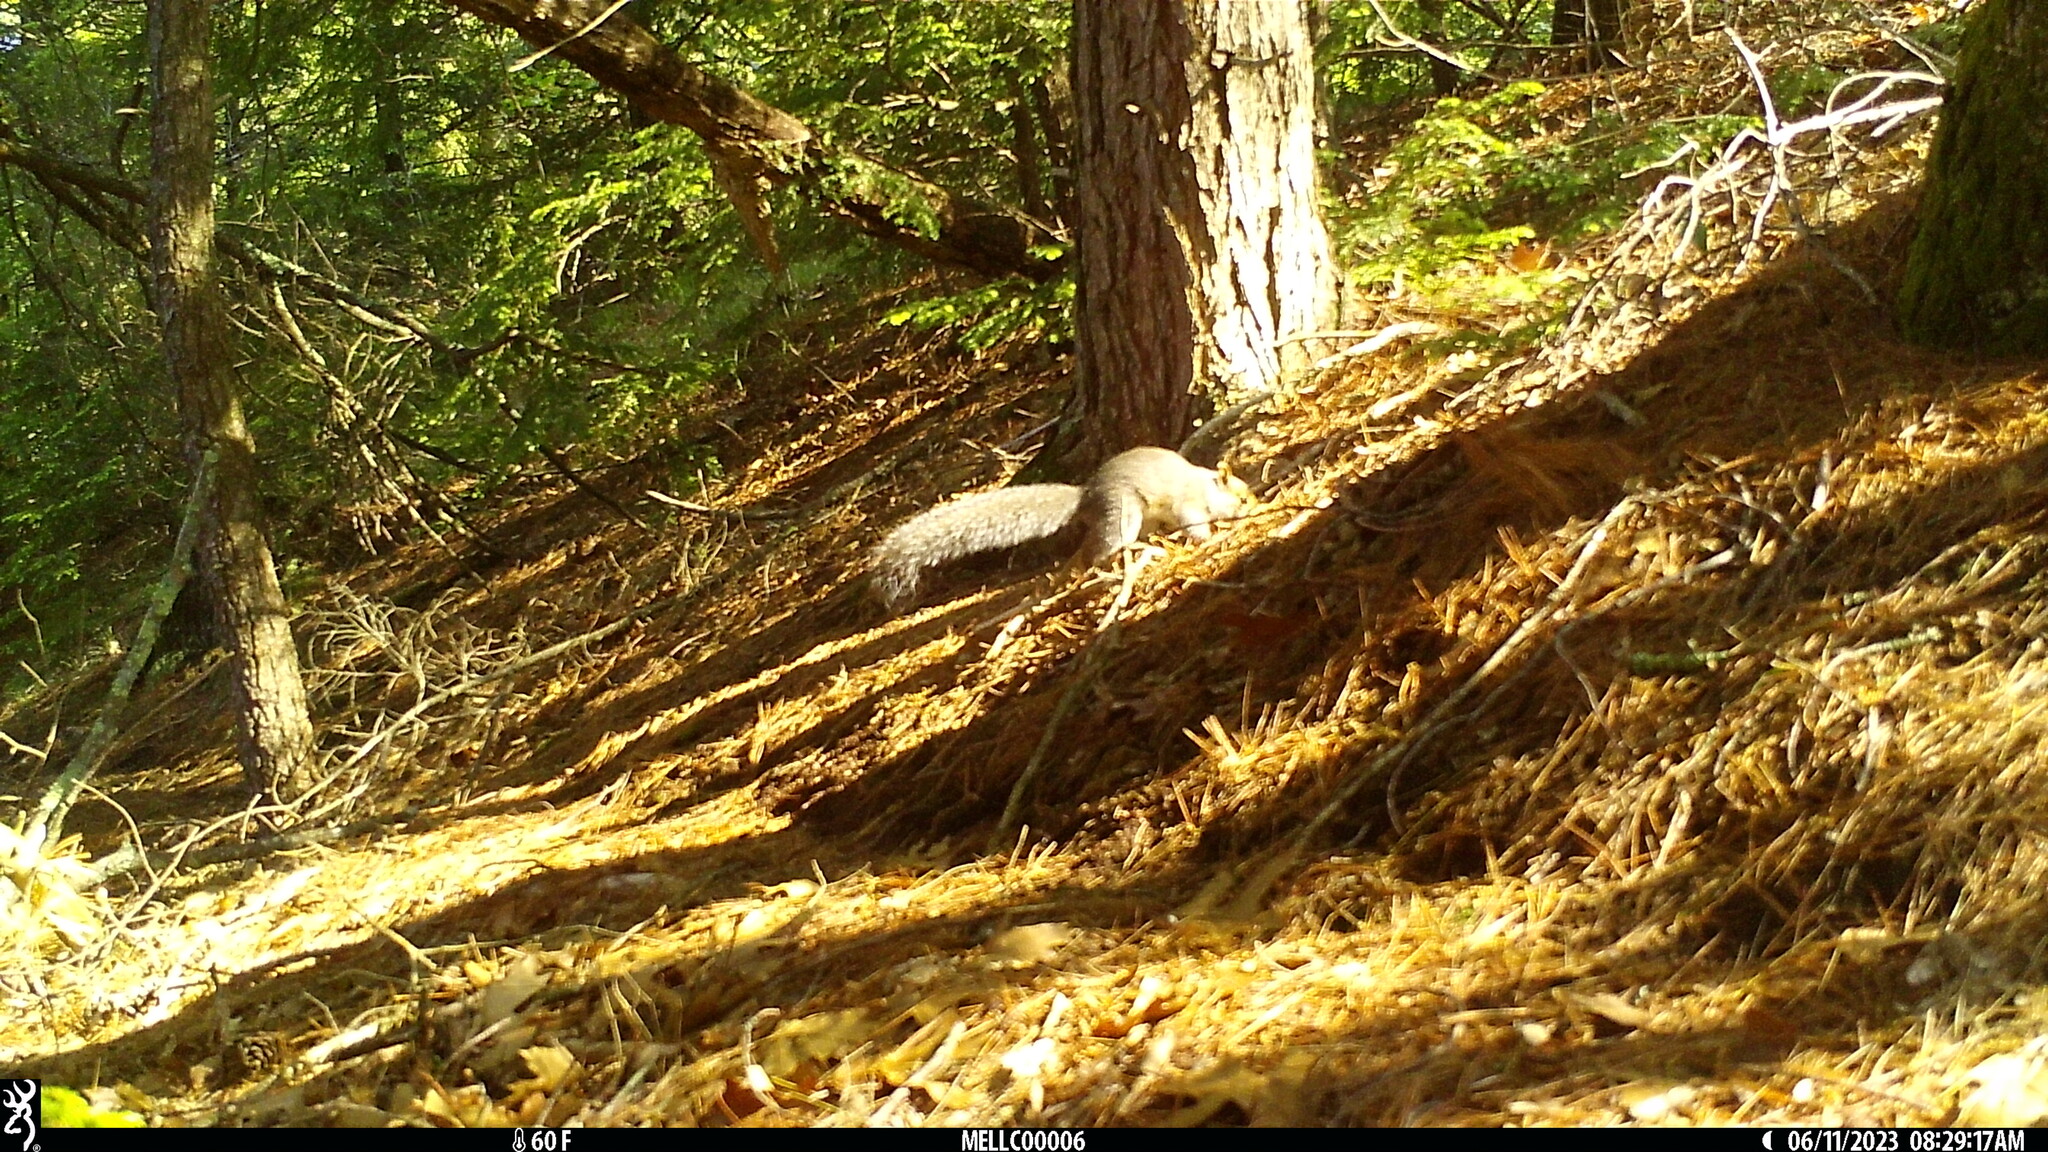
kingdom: Animalia
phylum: Chordata
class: Mammalia
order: Rodentia
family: Sciuridae
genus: Sciurus
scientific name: Sciurus carolinensis
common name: Eastern gray squirrel
